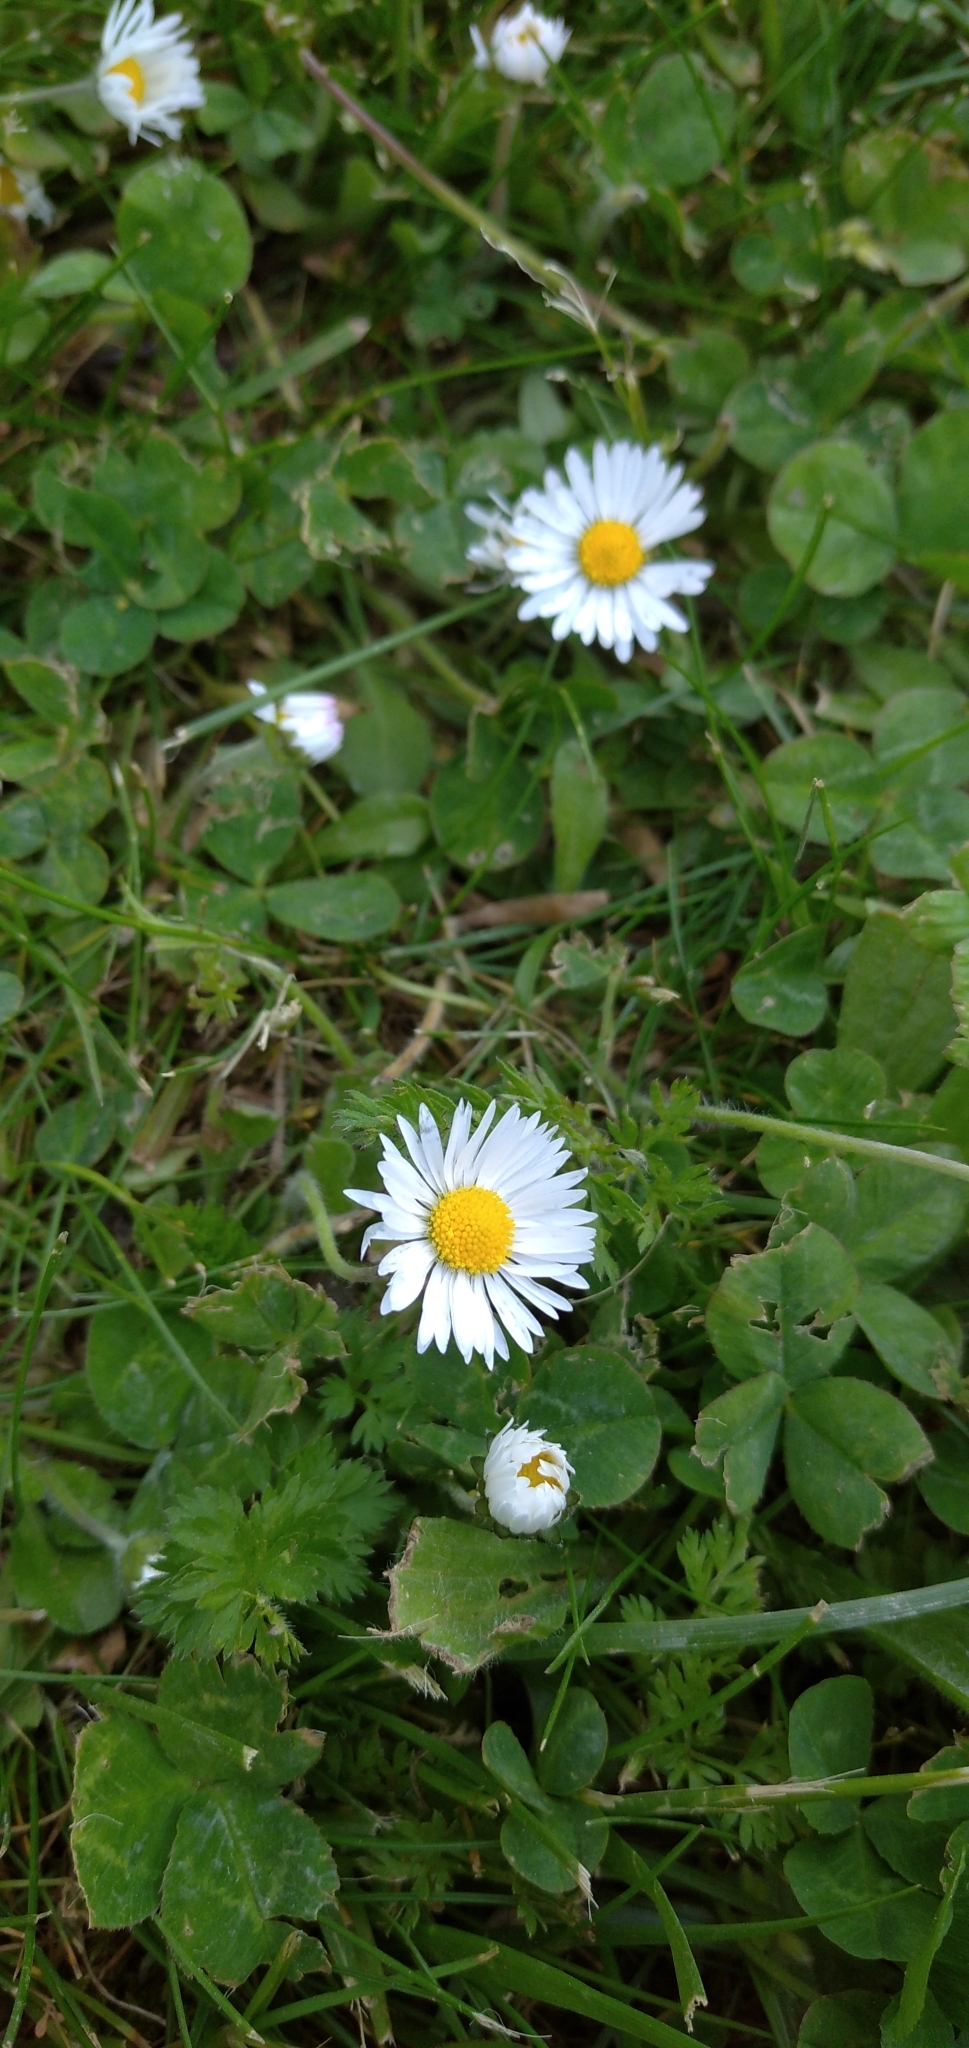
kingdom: Plantae
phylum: Tracheophyta
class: Magnoliopsida
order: Asterales
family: Asteraceae
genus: Bellis
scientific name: Bellis perennis
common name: Lawndaisy
